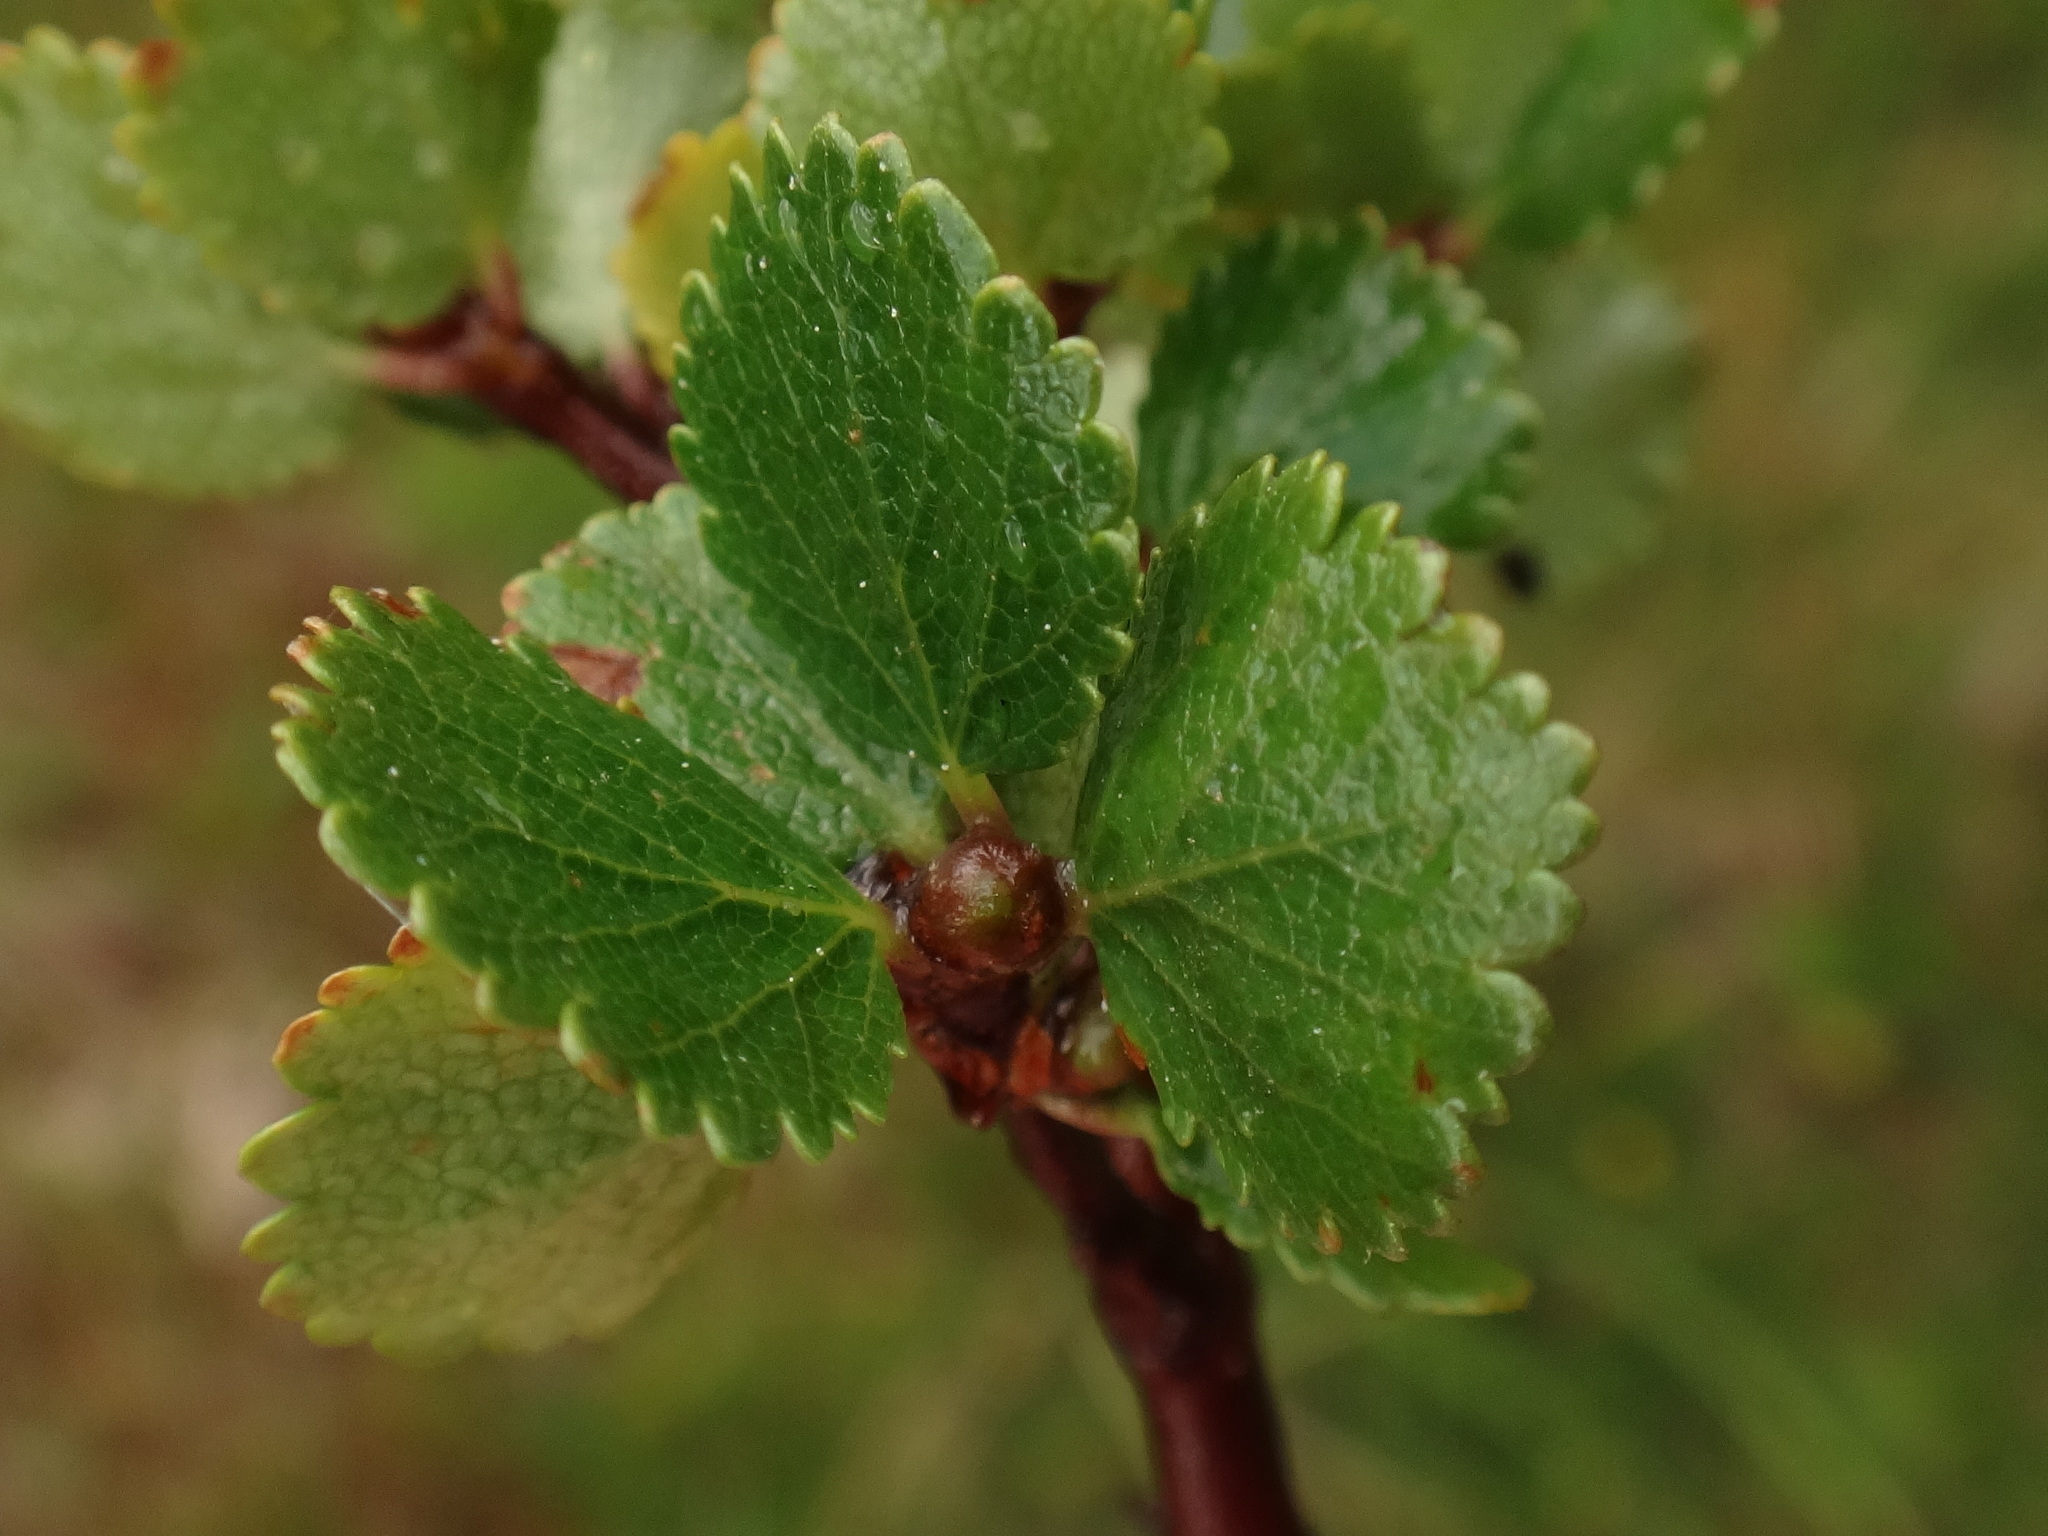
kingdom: Plantae
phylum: Tracheophyta
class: Magnoliopsida
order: Fagales
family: Betulaceae
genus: Betula
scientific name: Betula nana
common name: Arctic dwarf birch
